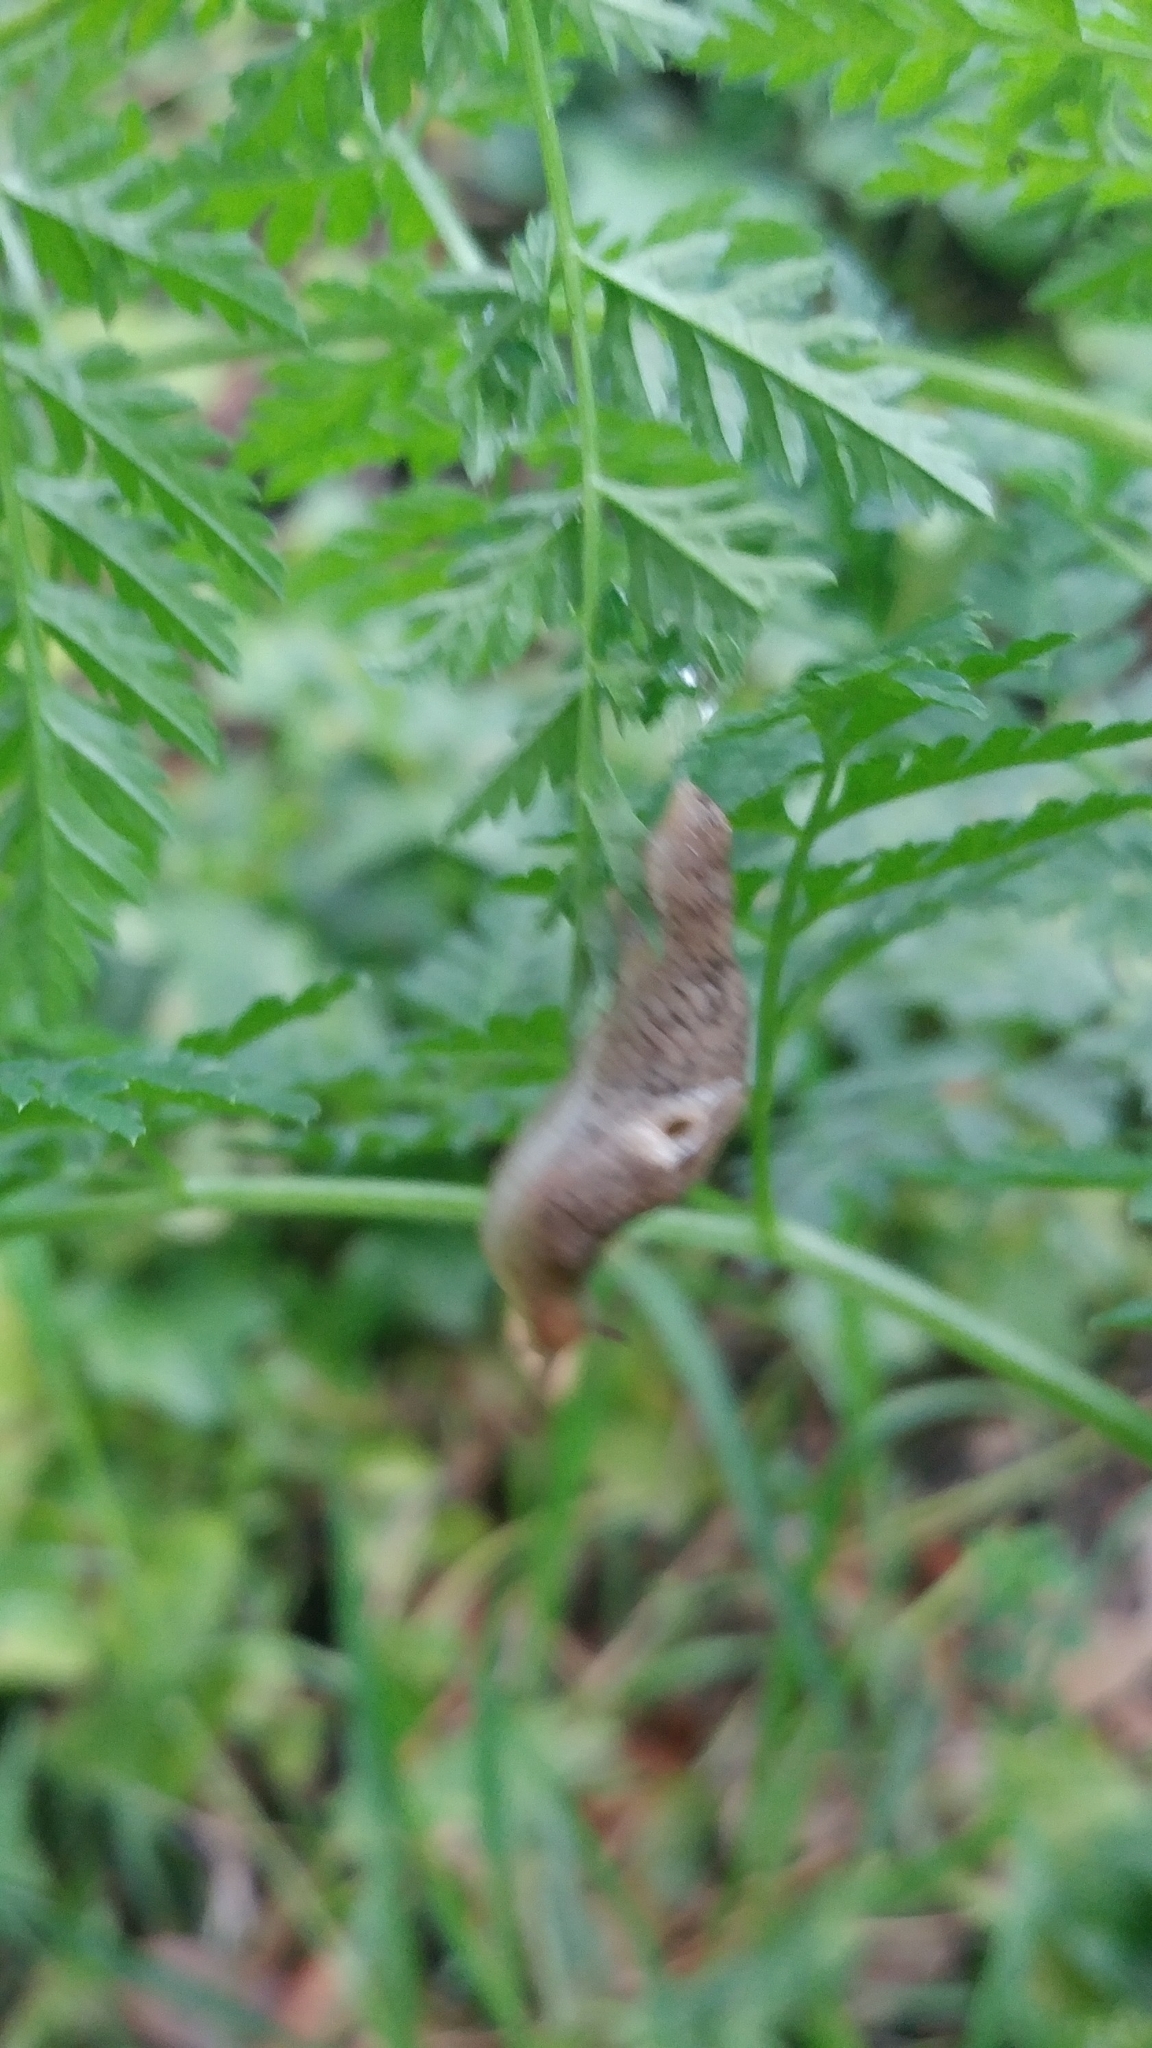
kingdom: Animalia
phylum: Mollusca
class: Gastropoda
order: Stylommatophora
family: Agriolimacidae
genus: Deroceras
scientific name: Deroceras reticulatum
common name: Gray field slug
